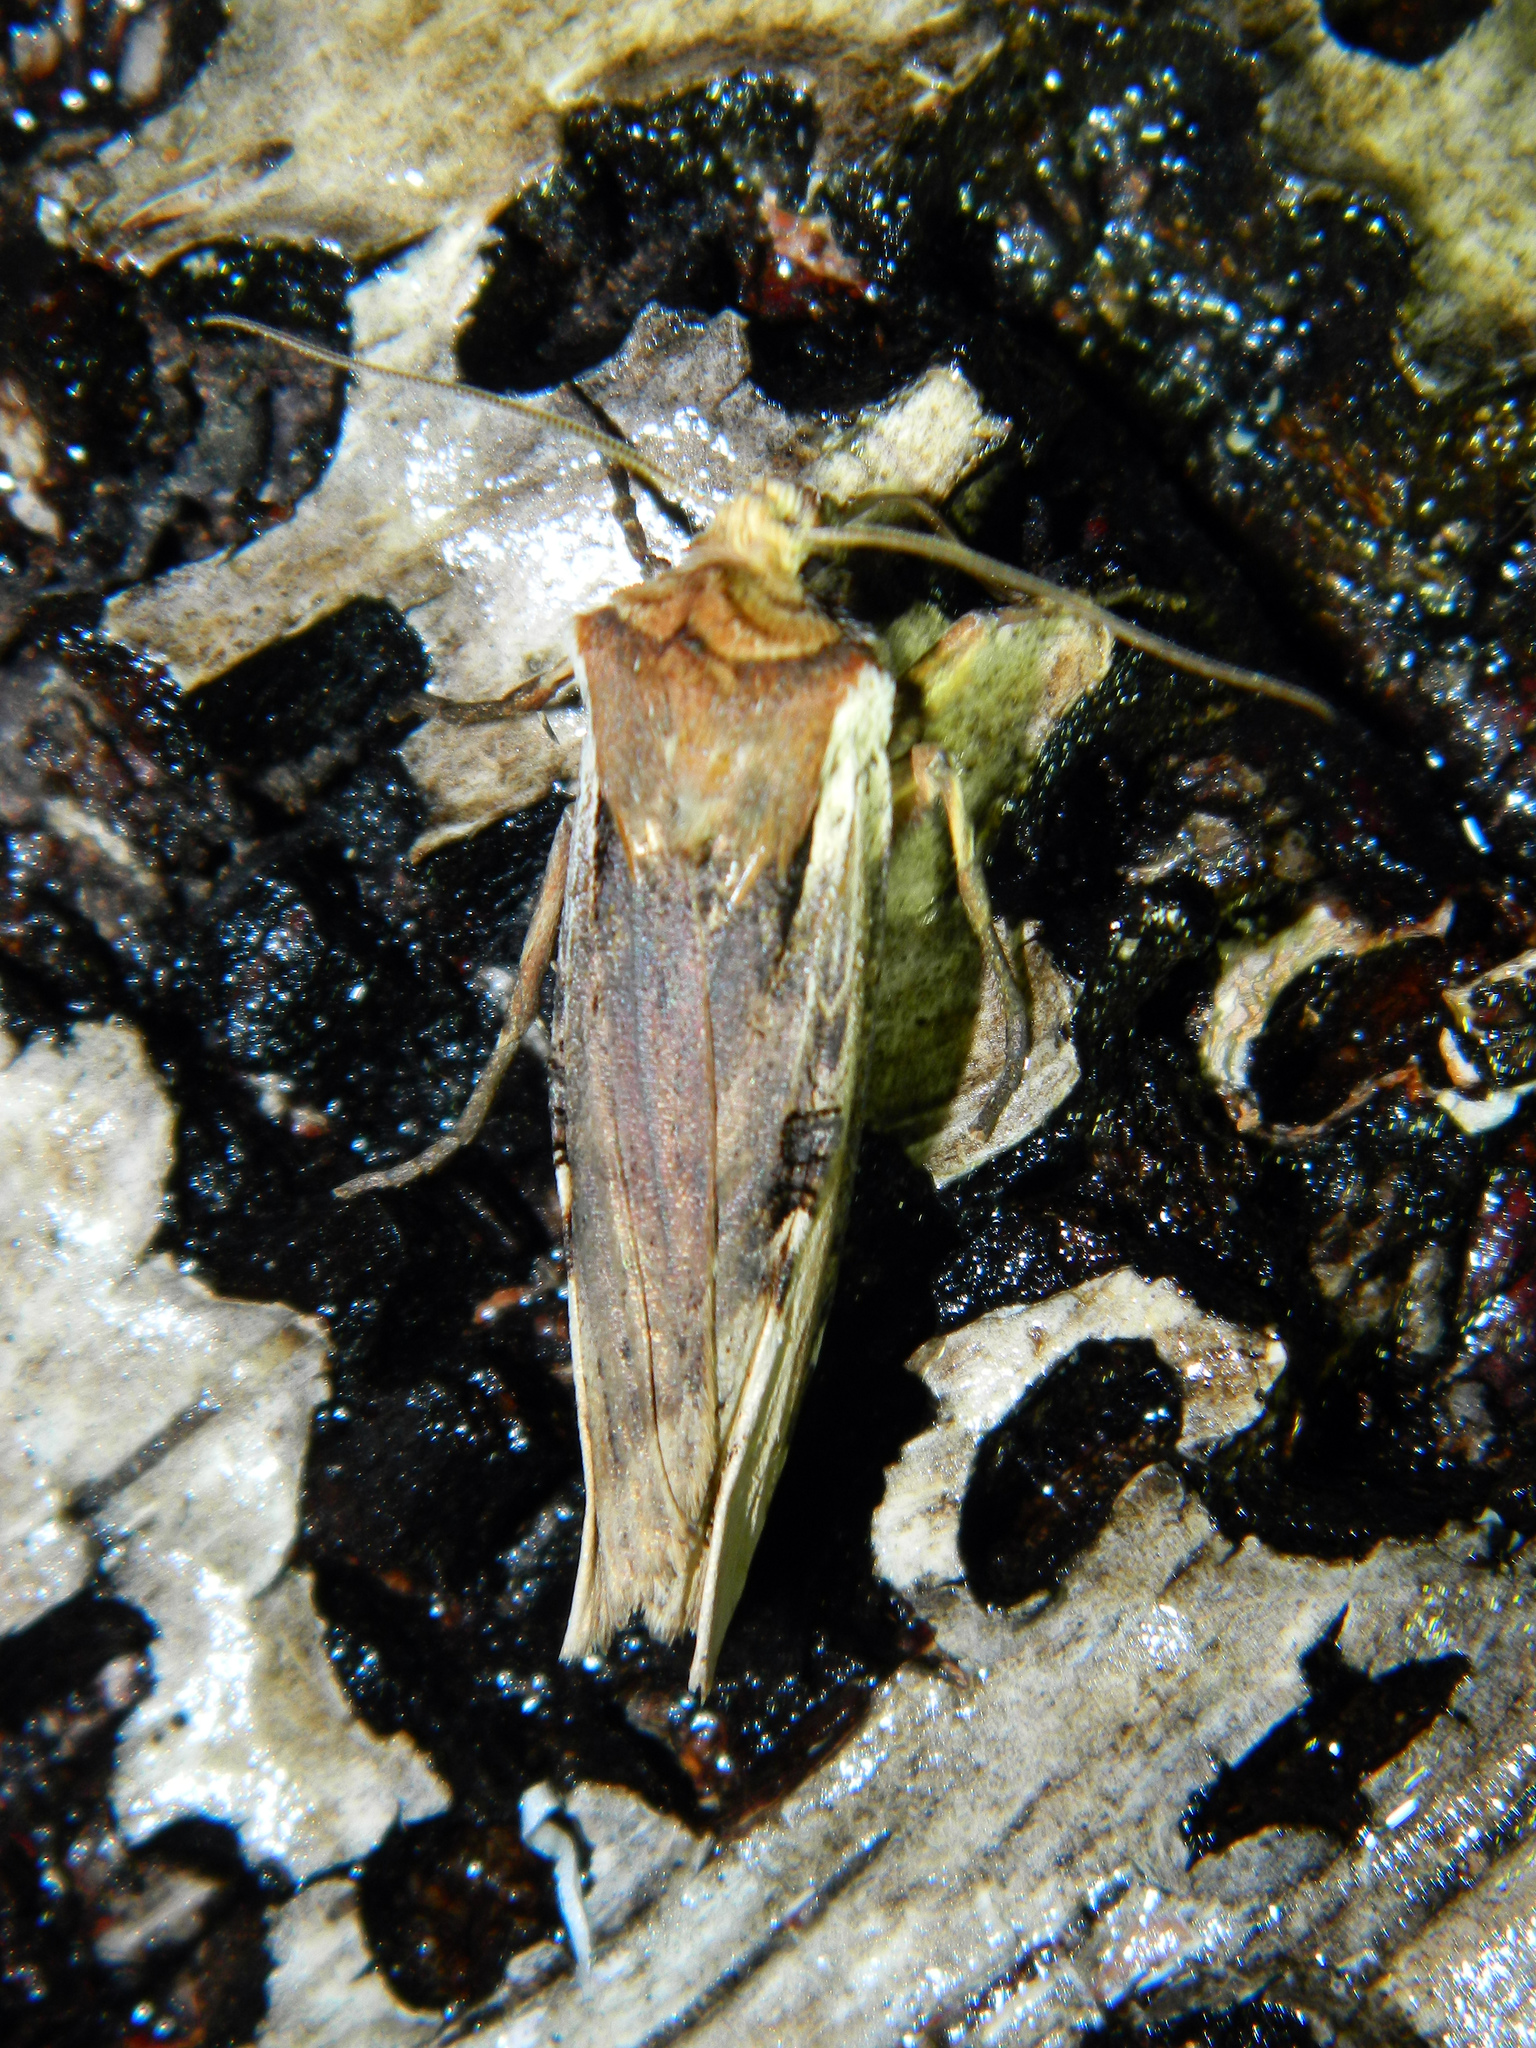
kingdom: Animalia
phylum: Arthropoda
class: Insecta
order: Lepidoptera
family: Noctuidae
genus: Xylena
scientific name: Xylena curvimacula
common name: Dot-and-dash swordgrass moth
